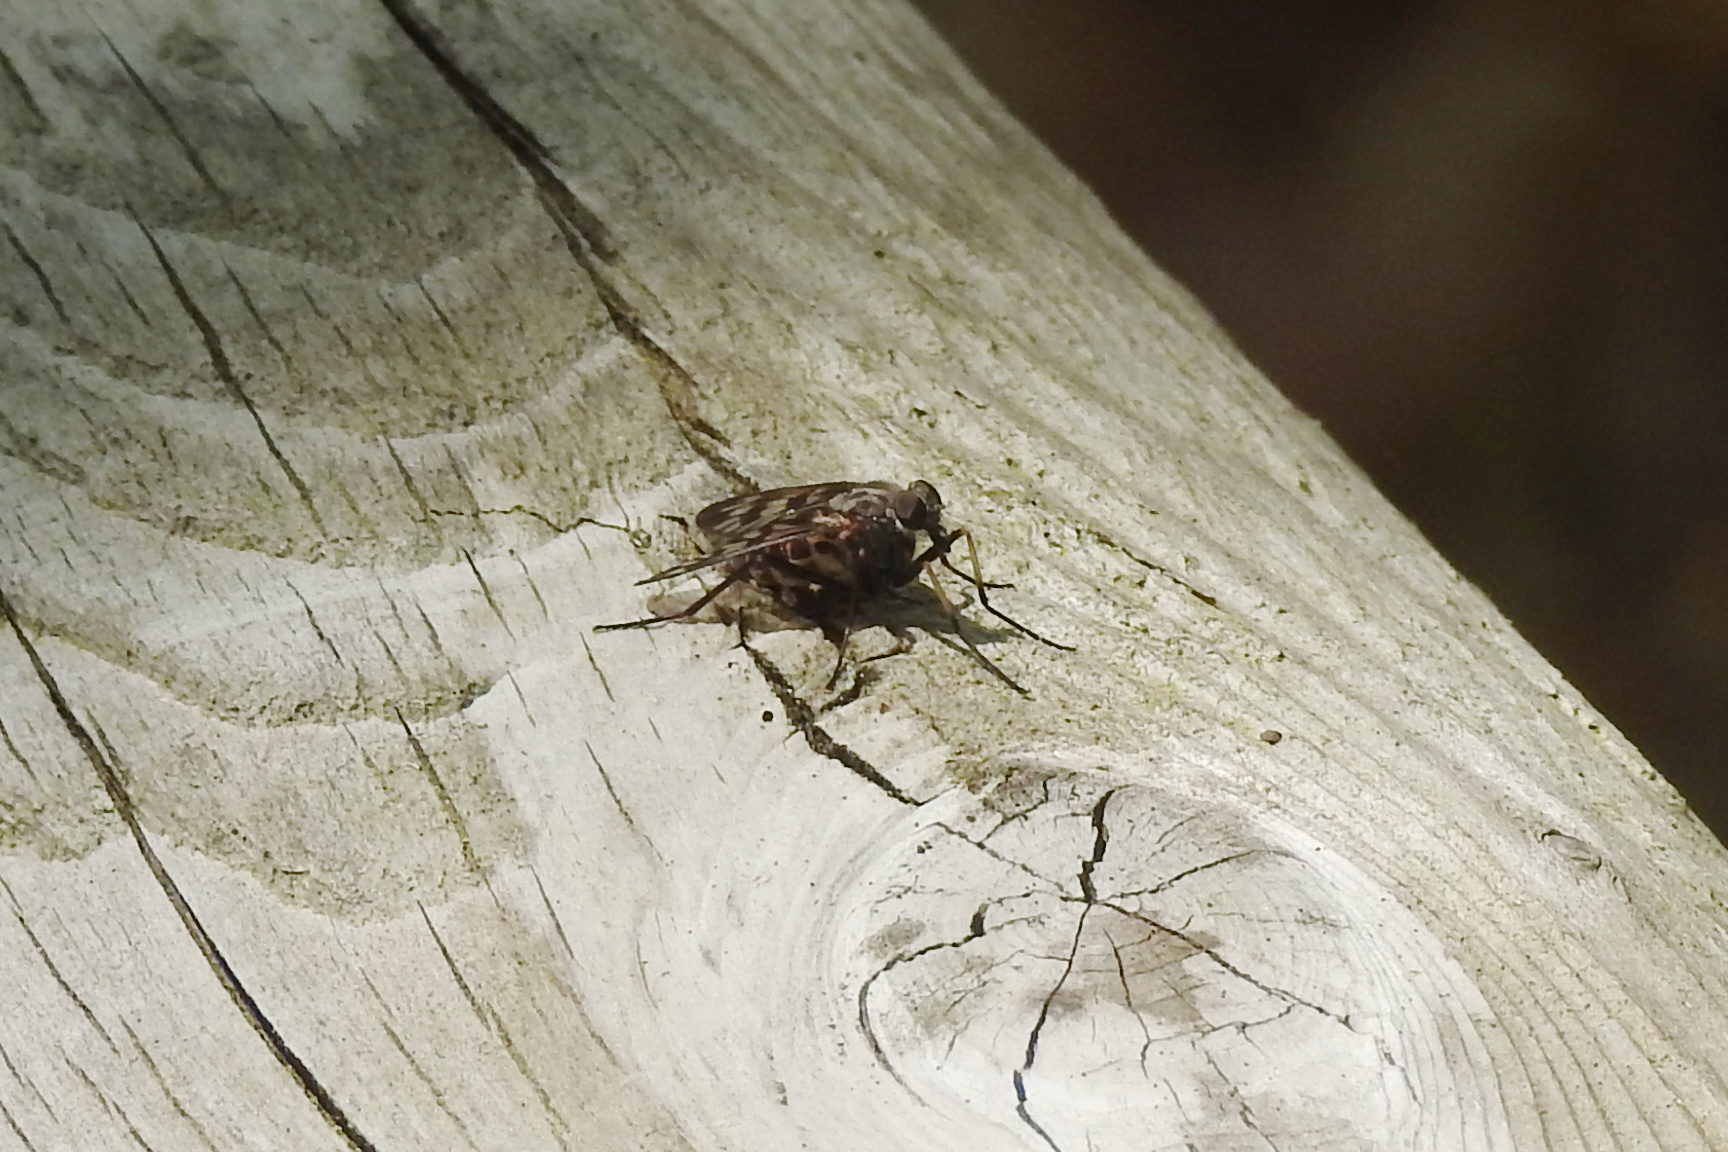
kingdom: Animalia
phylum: Arthropoda
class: Insecta
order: Diptera
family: Rhagionidae
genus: Rhagio
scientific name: Rhagio mystaceus
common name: Common snipe fly
